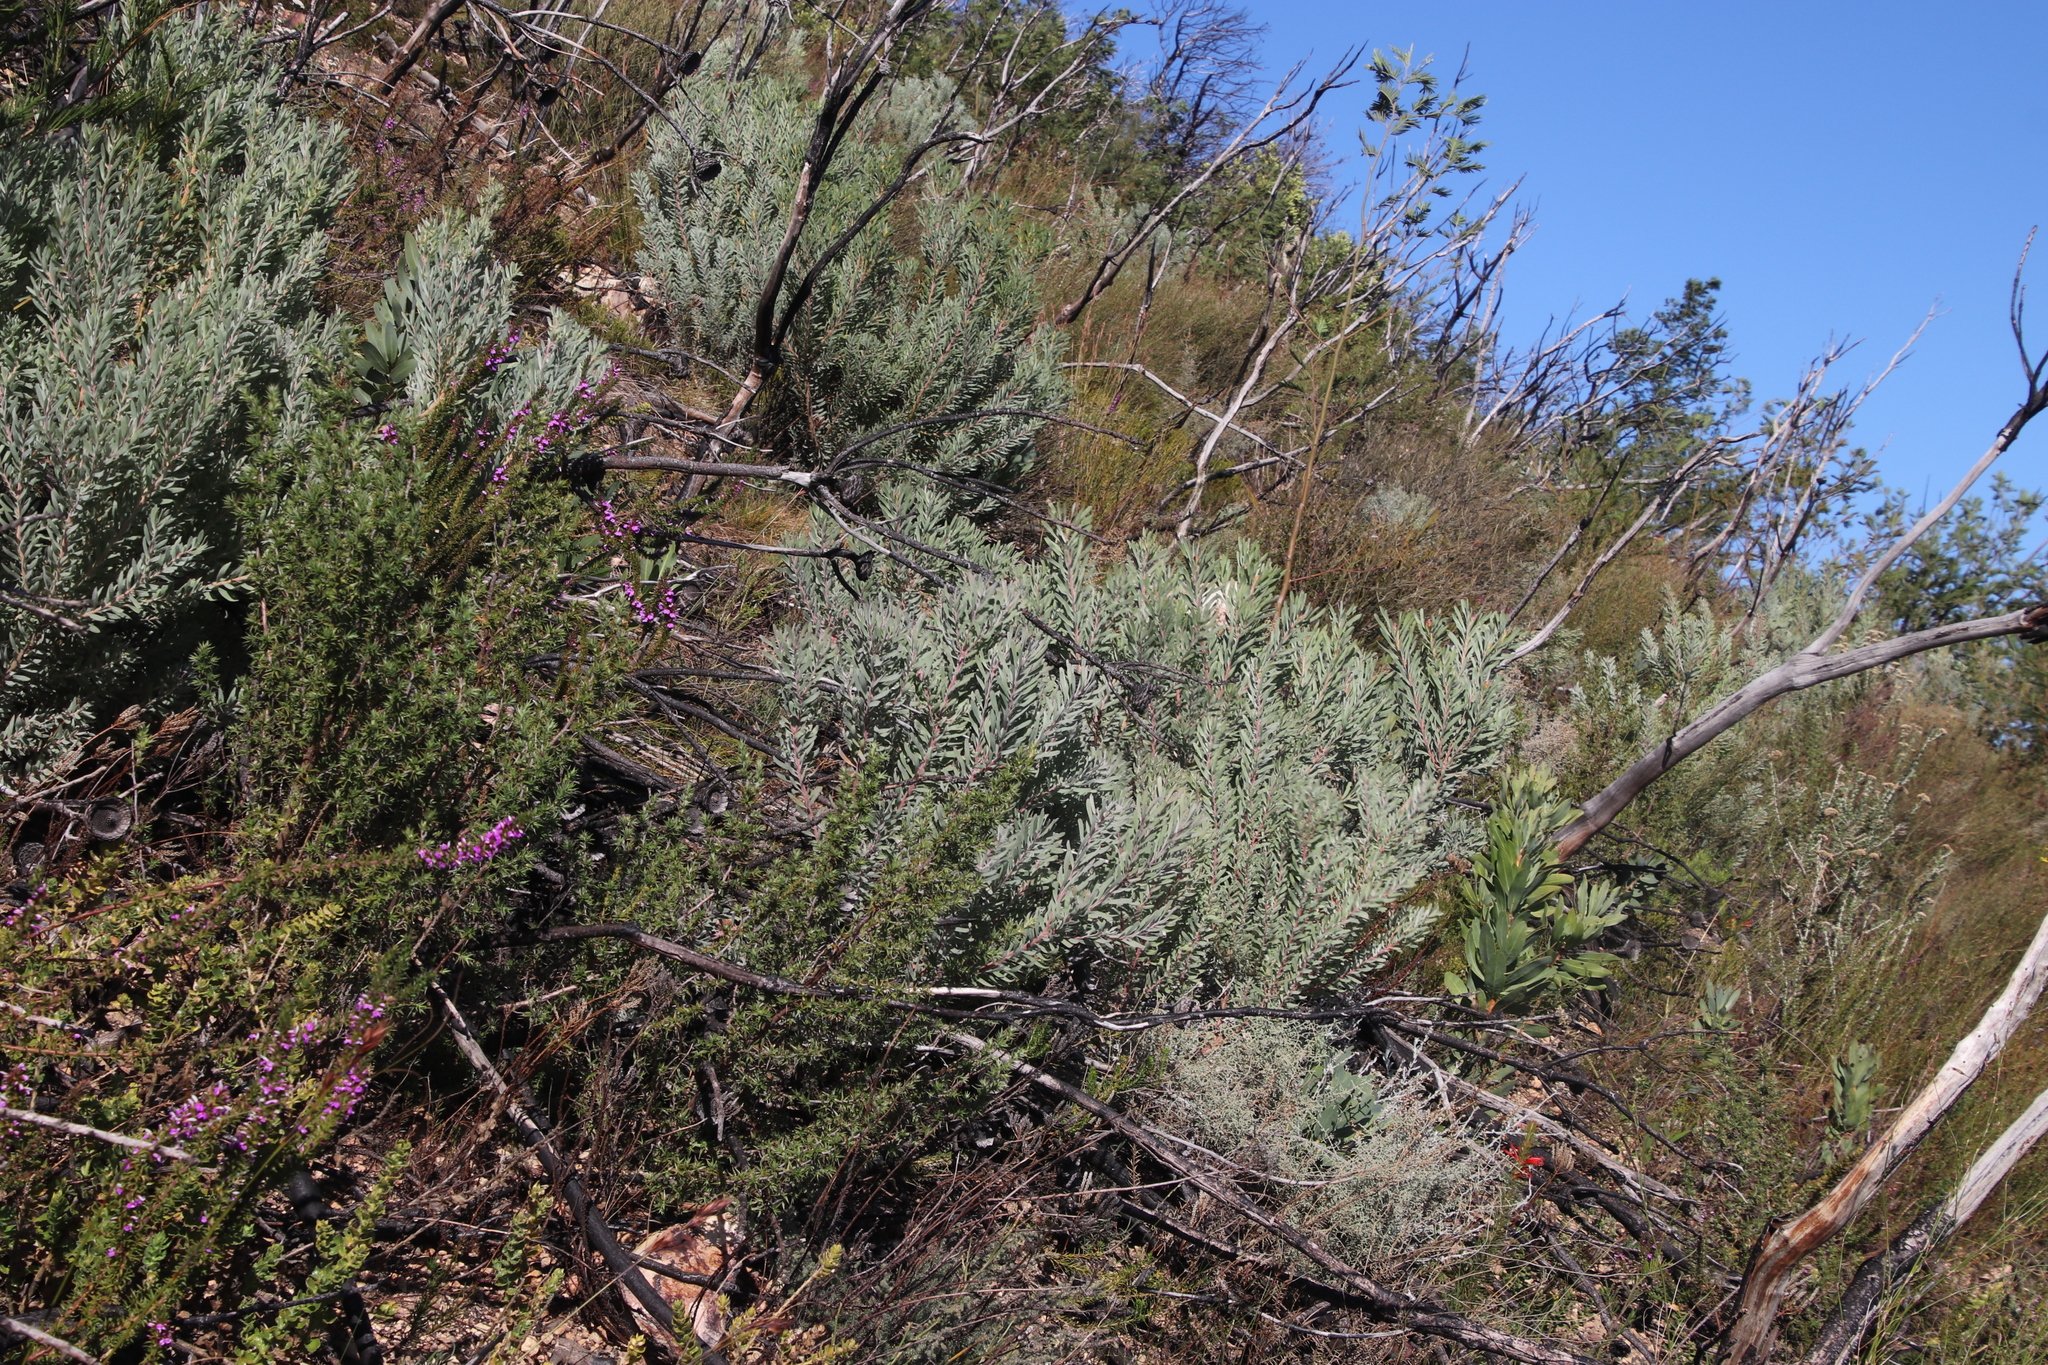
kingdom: Plantae
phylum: Tracheophyta
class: Magnoliopsida
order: Proteales
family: Proteaceae
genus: Leucadendron
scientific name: Leucadendron rubrum
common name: Spinning top
